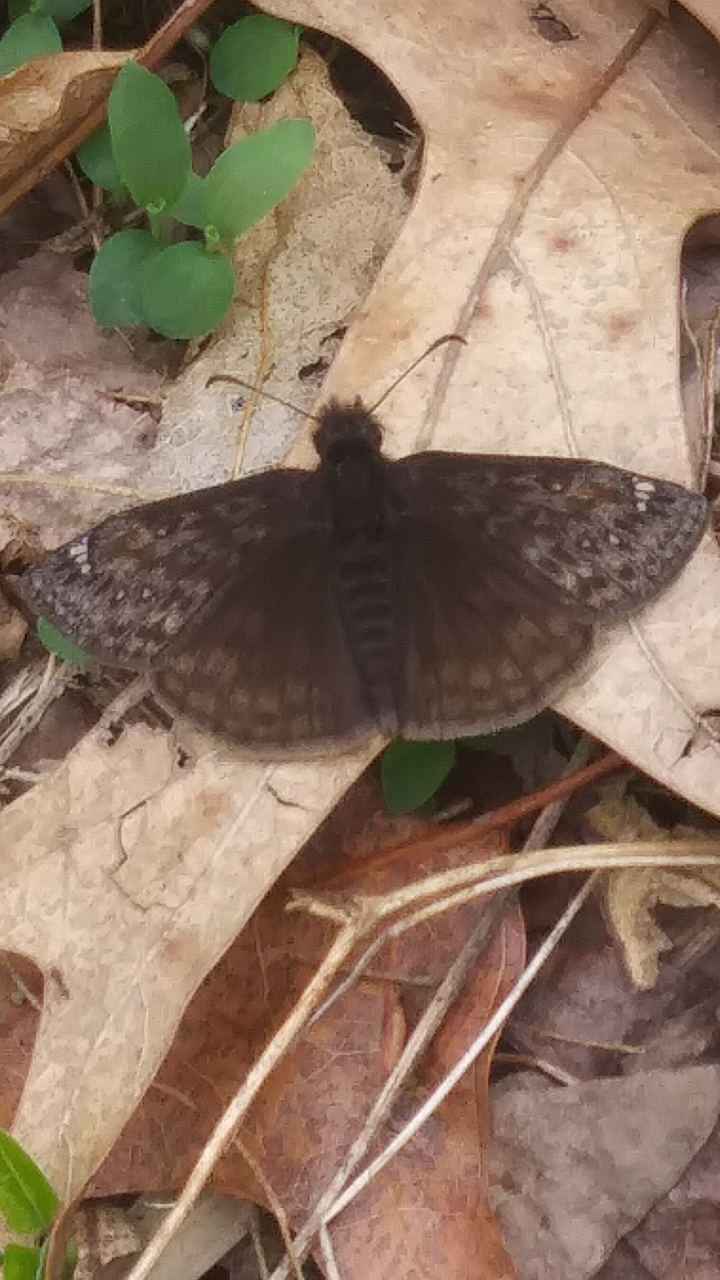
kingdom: Animalia
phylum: Arthropoda
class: Insecta
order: Lepidoptera
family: Hesperiidae
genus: Erynnis
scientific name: Erynnis juvenalis
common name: Juvenal's duskywing
